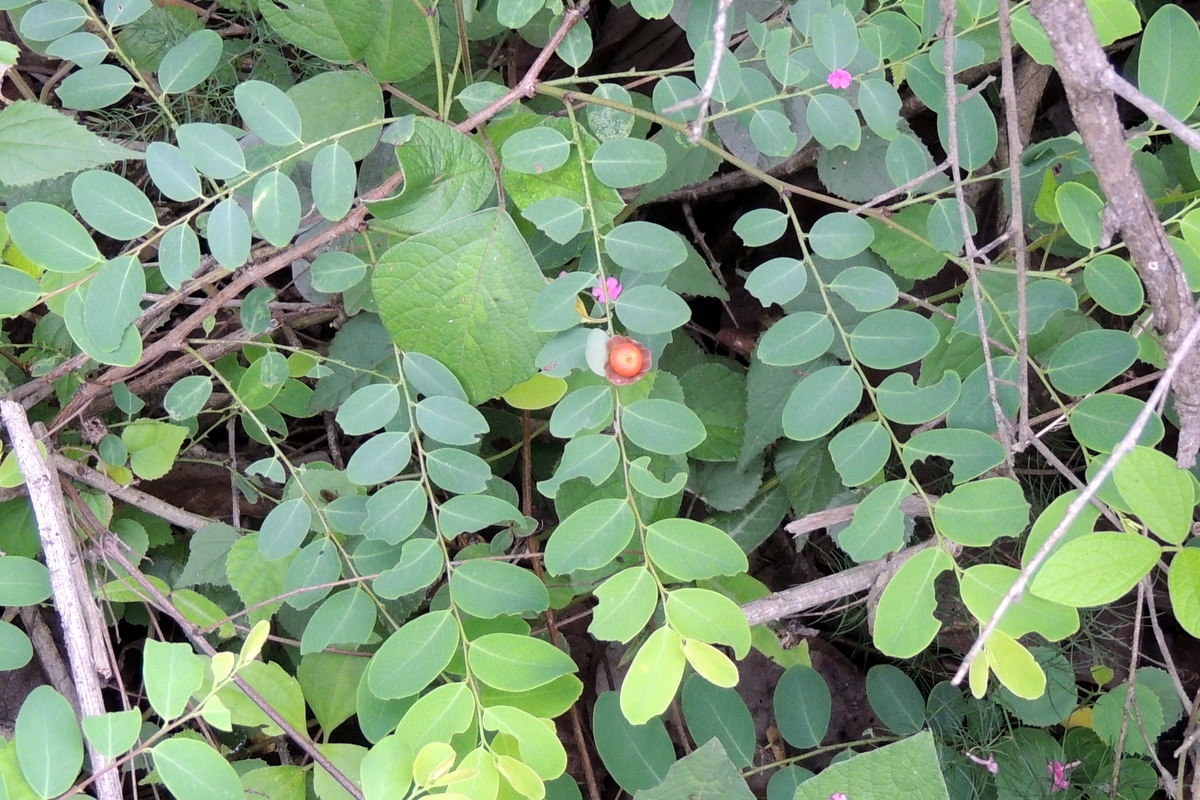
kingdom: Plantae
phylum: Tracheophyta
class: Magnoliopsida
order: Malpighiales
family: Phyllanthaceae
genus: Breynia
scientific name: Breynia retusa
